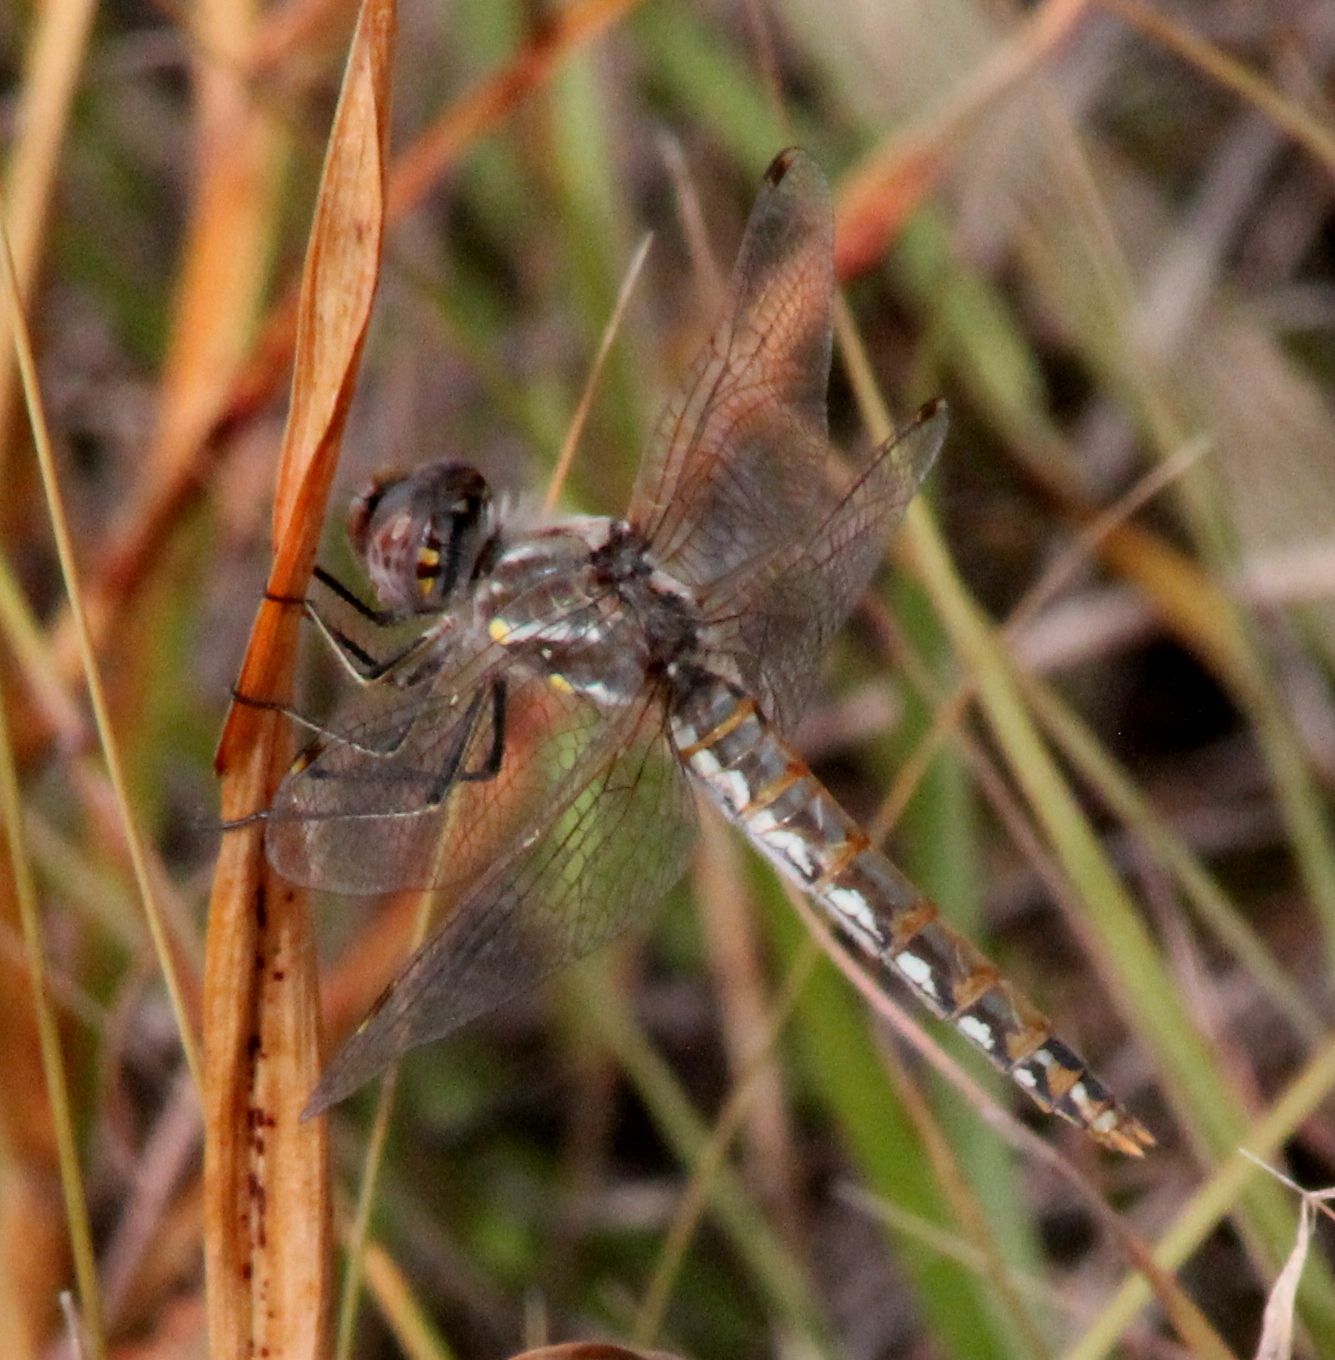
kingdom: Animalia
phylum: Arthropoda
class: Insecta
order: Odonata
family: Libellulidae
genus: Sympetrum
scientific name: Sympetrum corruptum
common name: Variegated meadowhawk
